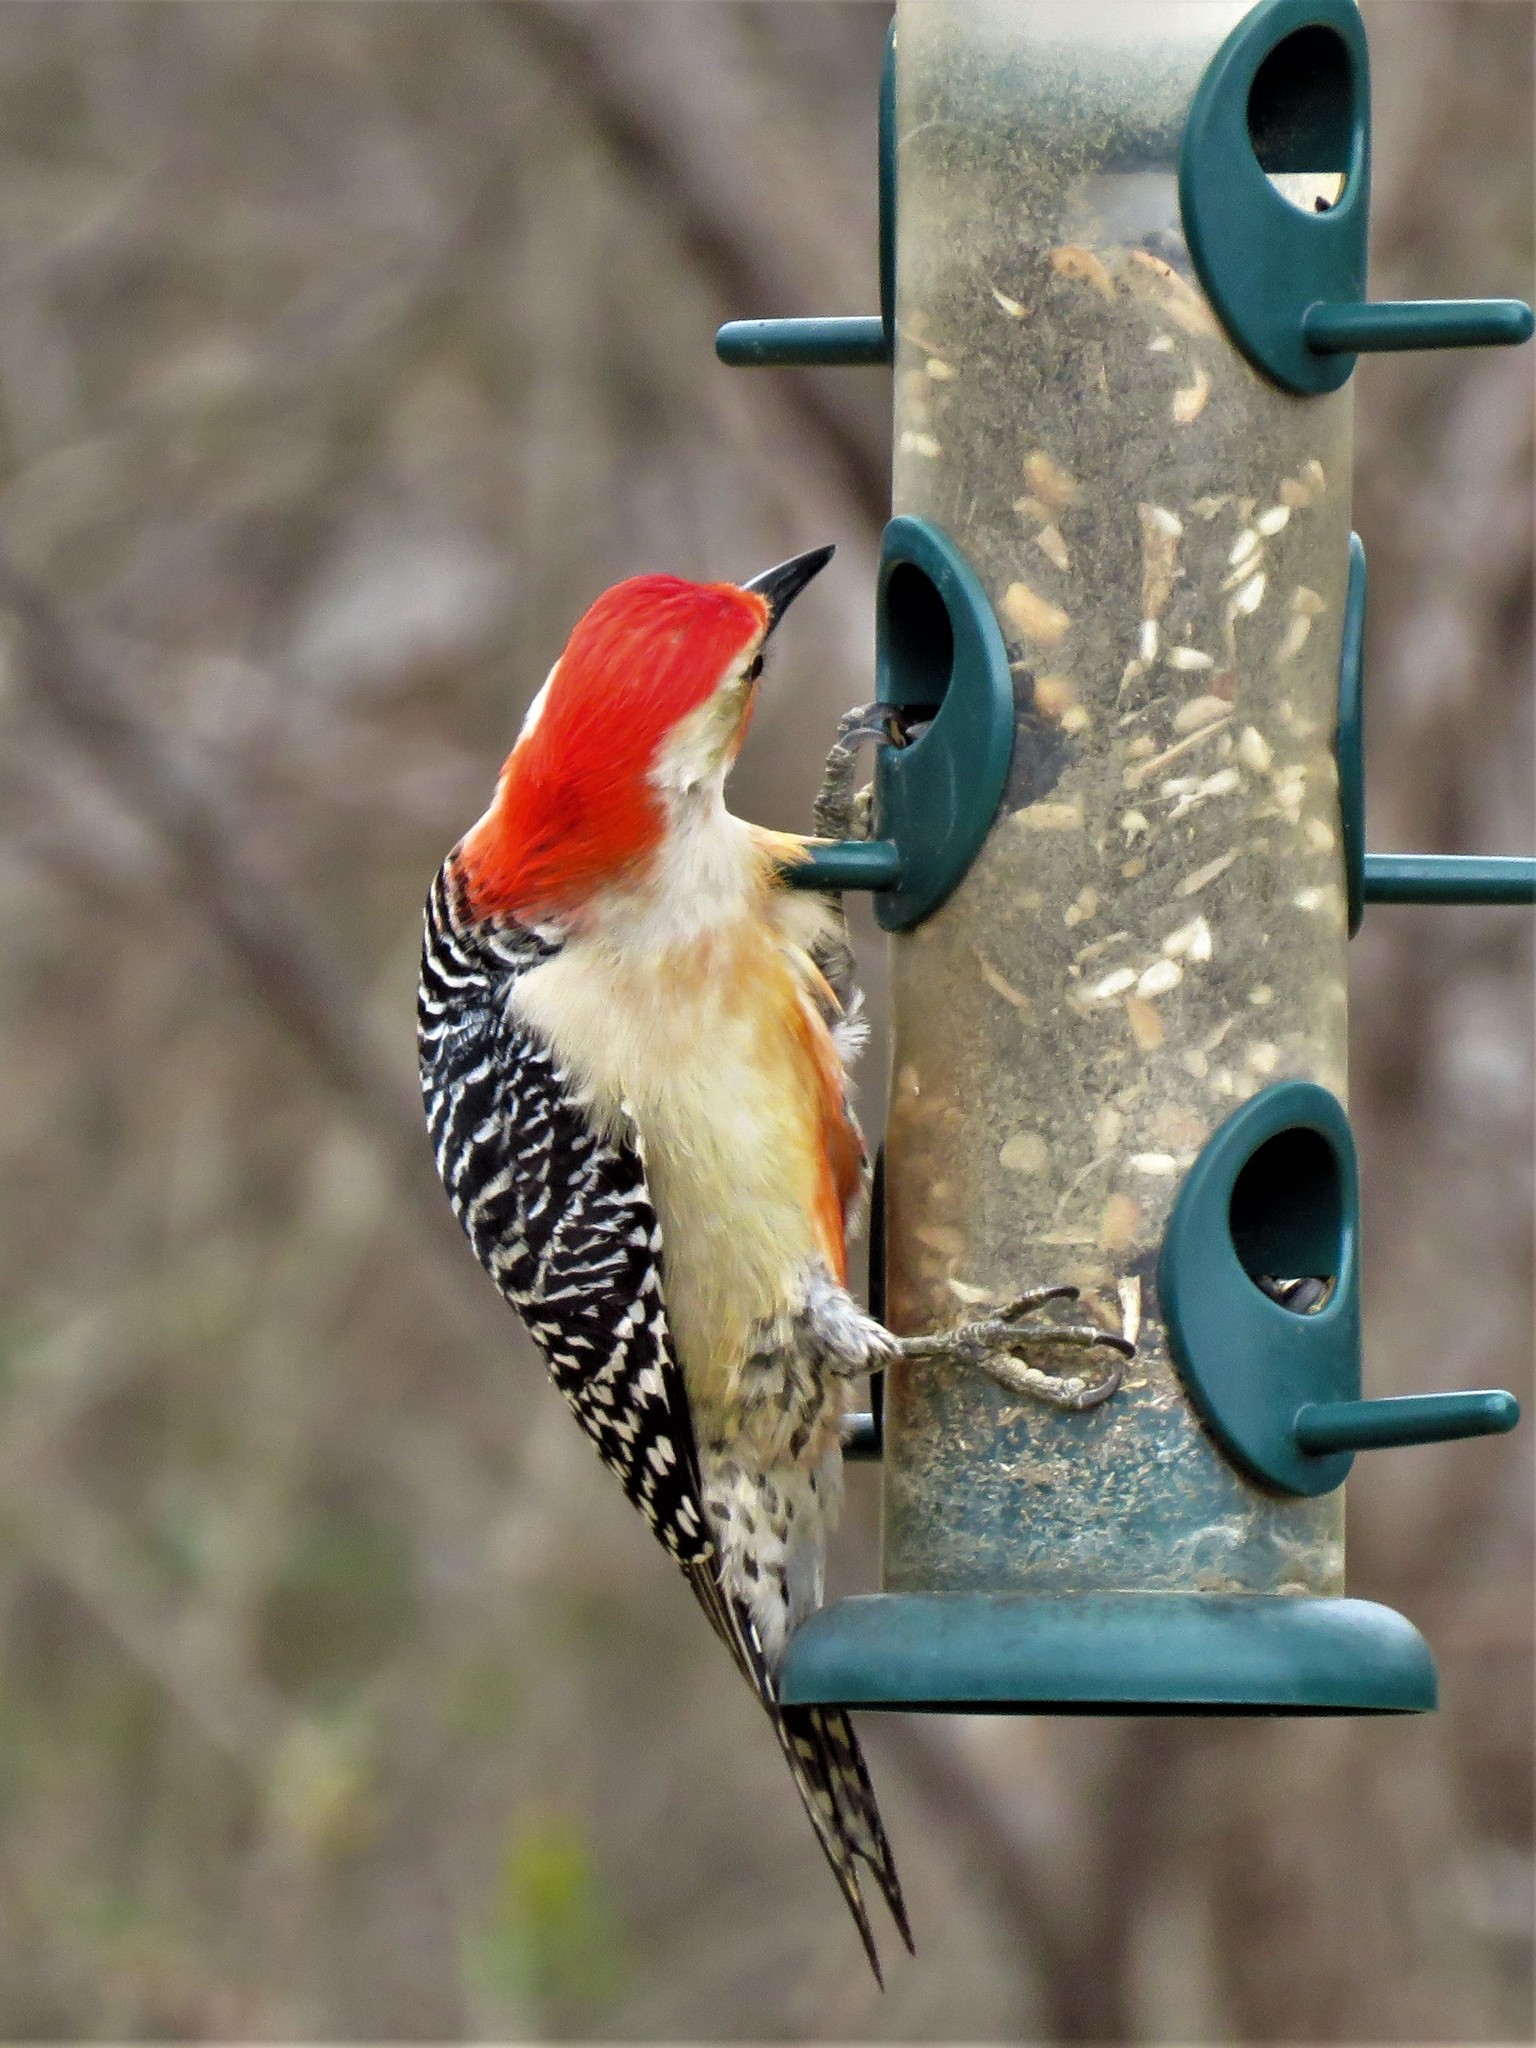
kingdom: Animalia
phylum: Chordata
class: Aves
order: Piciformes
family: Picidae
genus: Melanerpes
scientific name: Melanerpes carolinus
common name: Red-bellied woodpecker
